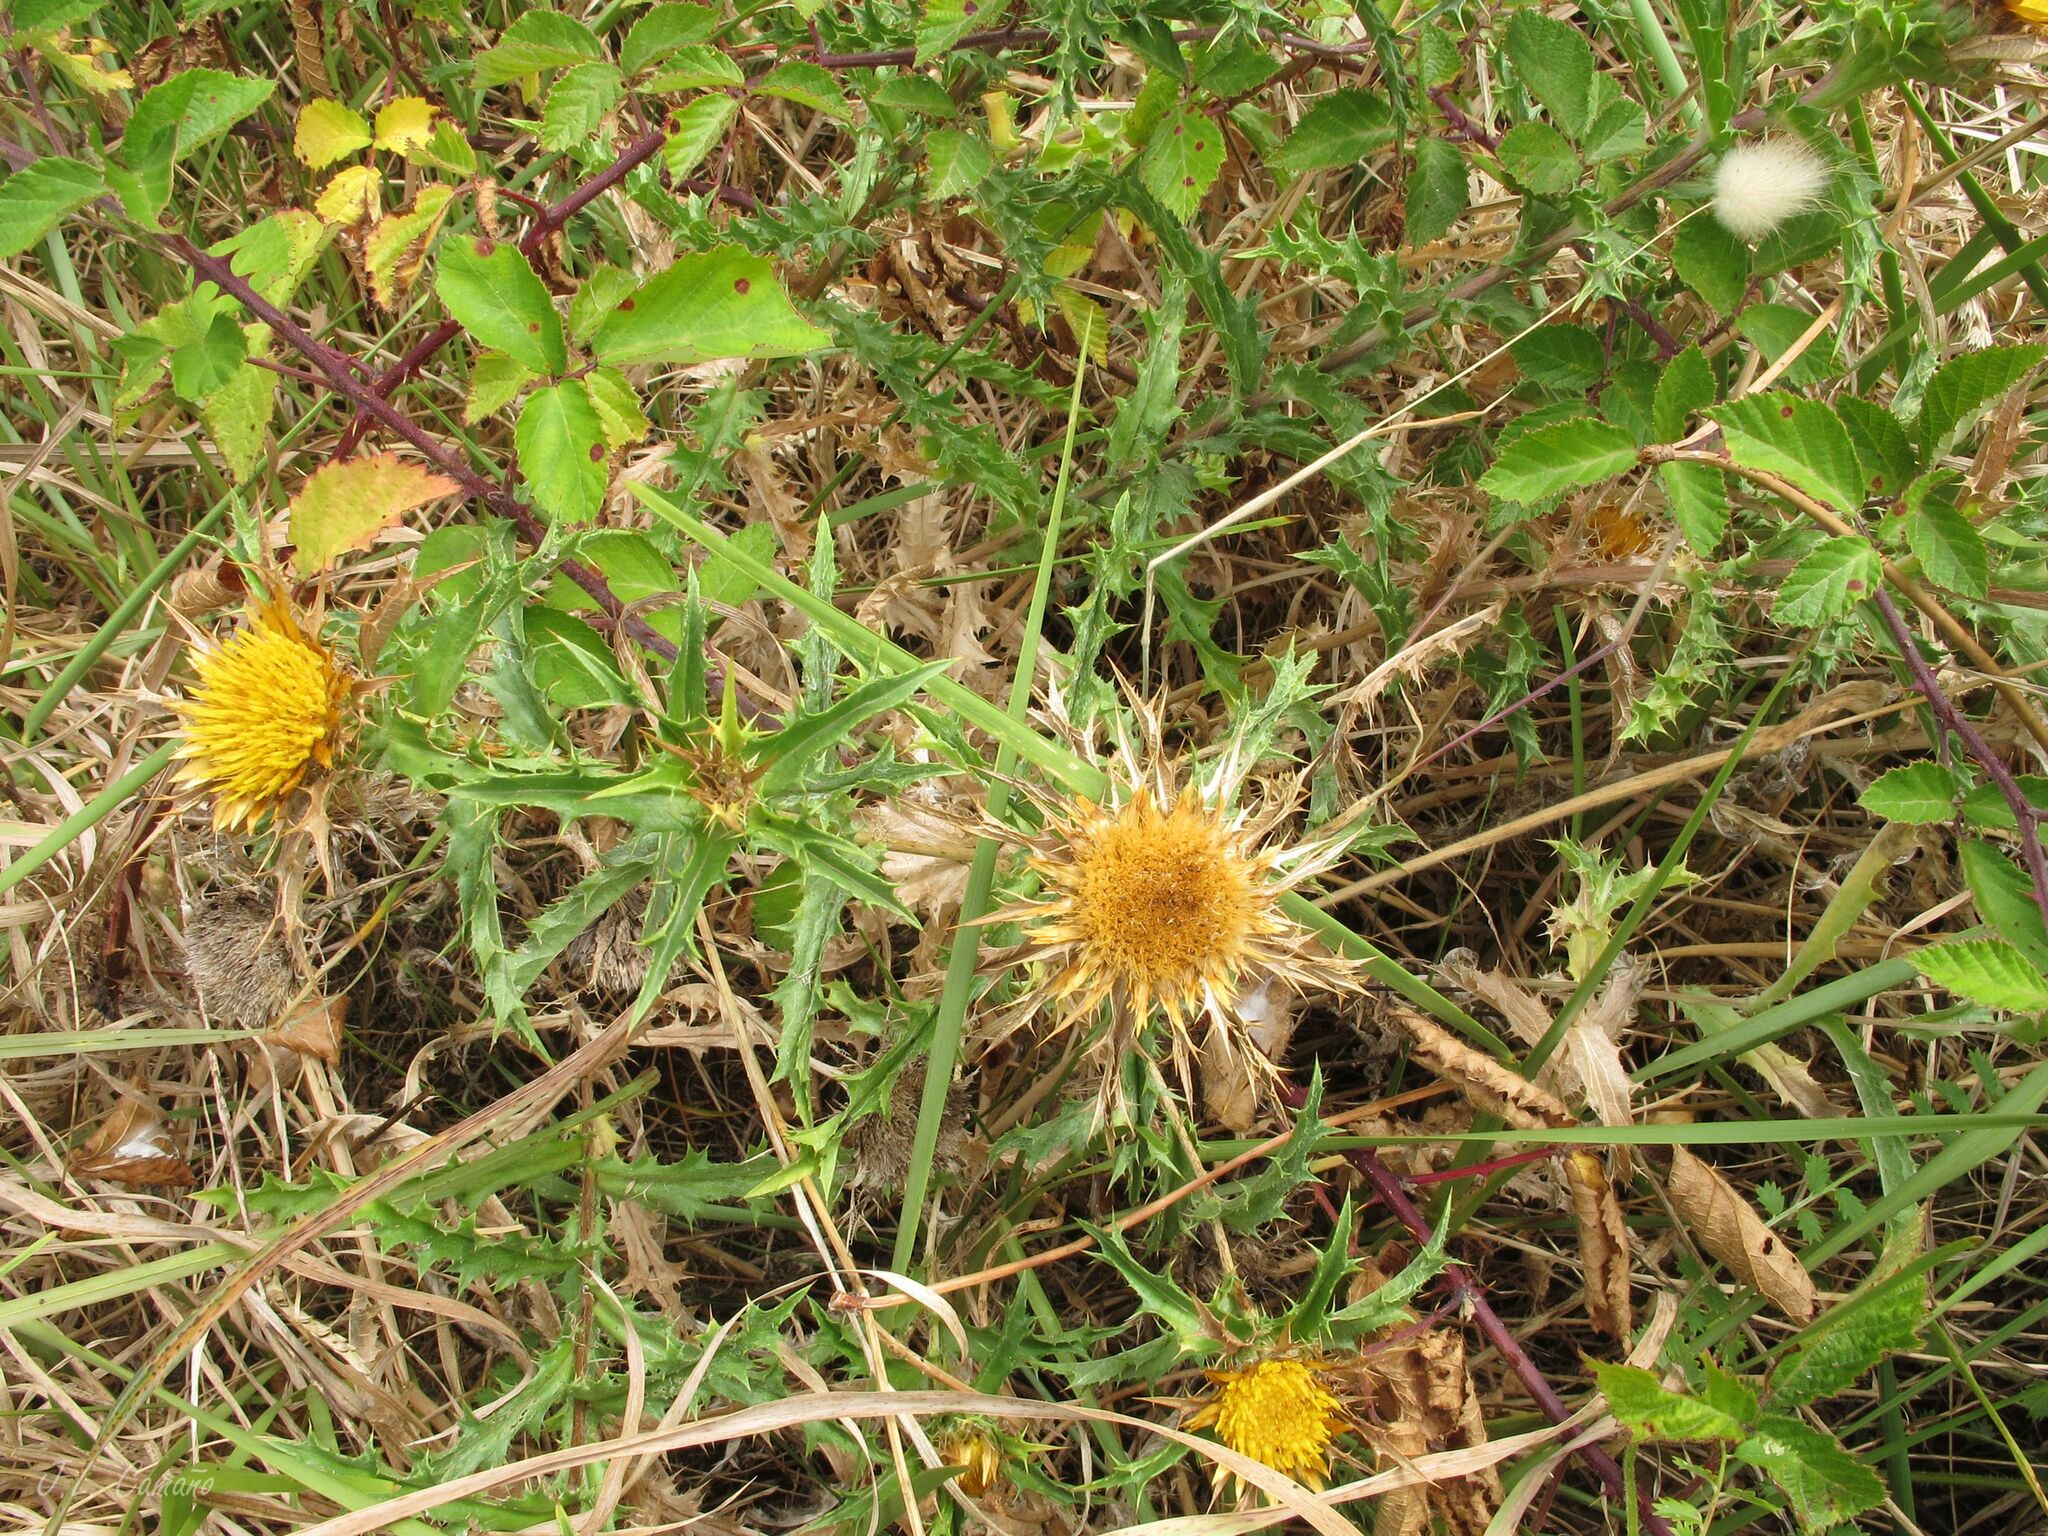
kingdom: Plantae
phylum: Tracheophyta
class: Magnoliopsida
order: Asterales
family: Asteraceae
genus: Carlina
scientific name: Carlina hispanica
